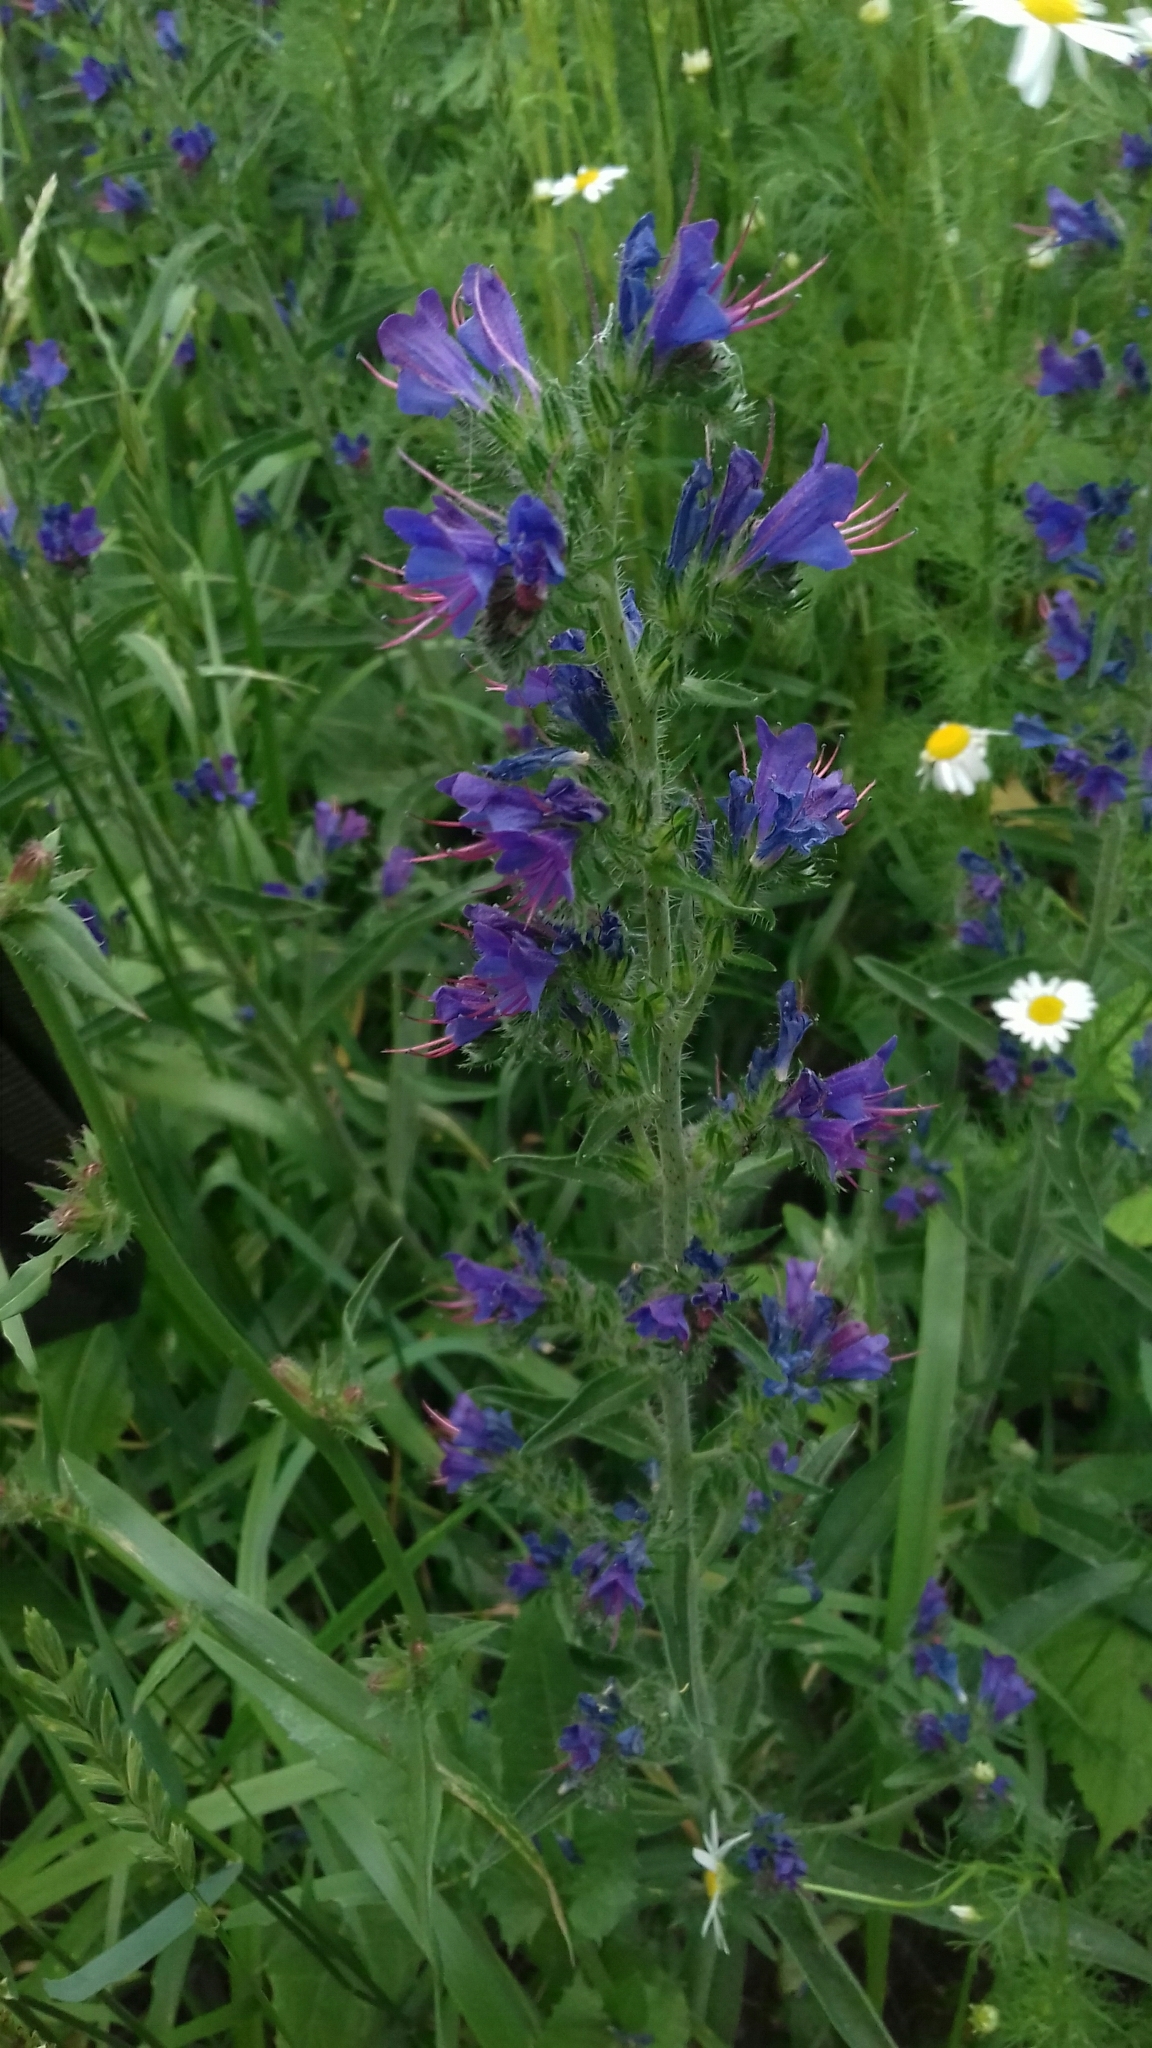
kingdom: Plantae
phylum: Tracheophyta
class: Magnoliopsida
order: Boraginales
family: Boraginaceae
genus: Echium
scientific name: Echium vulgare
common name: Common viper's bugloss
